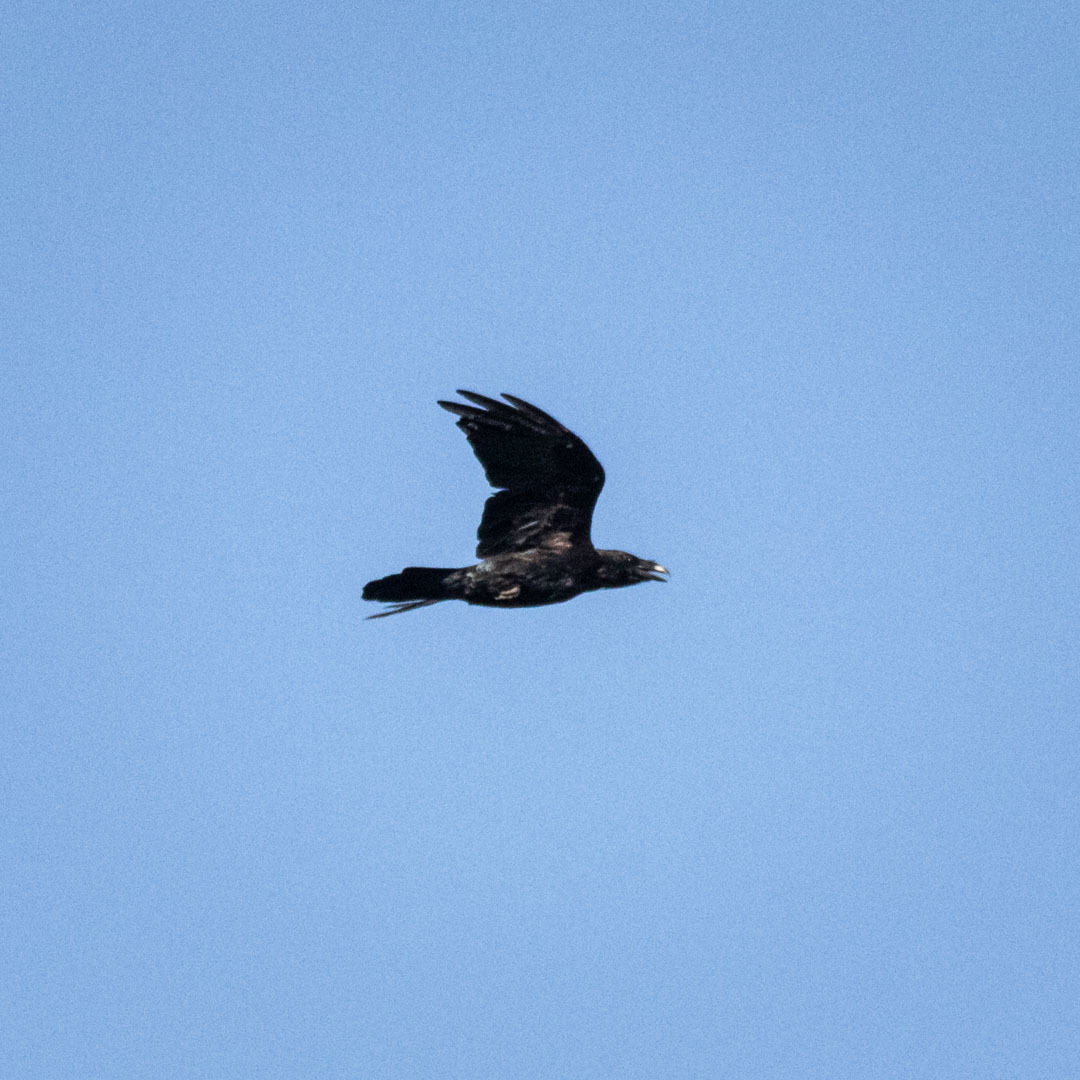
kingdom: Animalia
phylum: Chordata
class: Aves
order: Passeriformes
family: Corvidae
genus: Corvus
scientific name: Corvus corax
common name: Common raven
